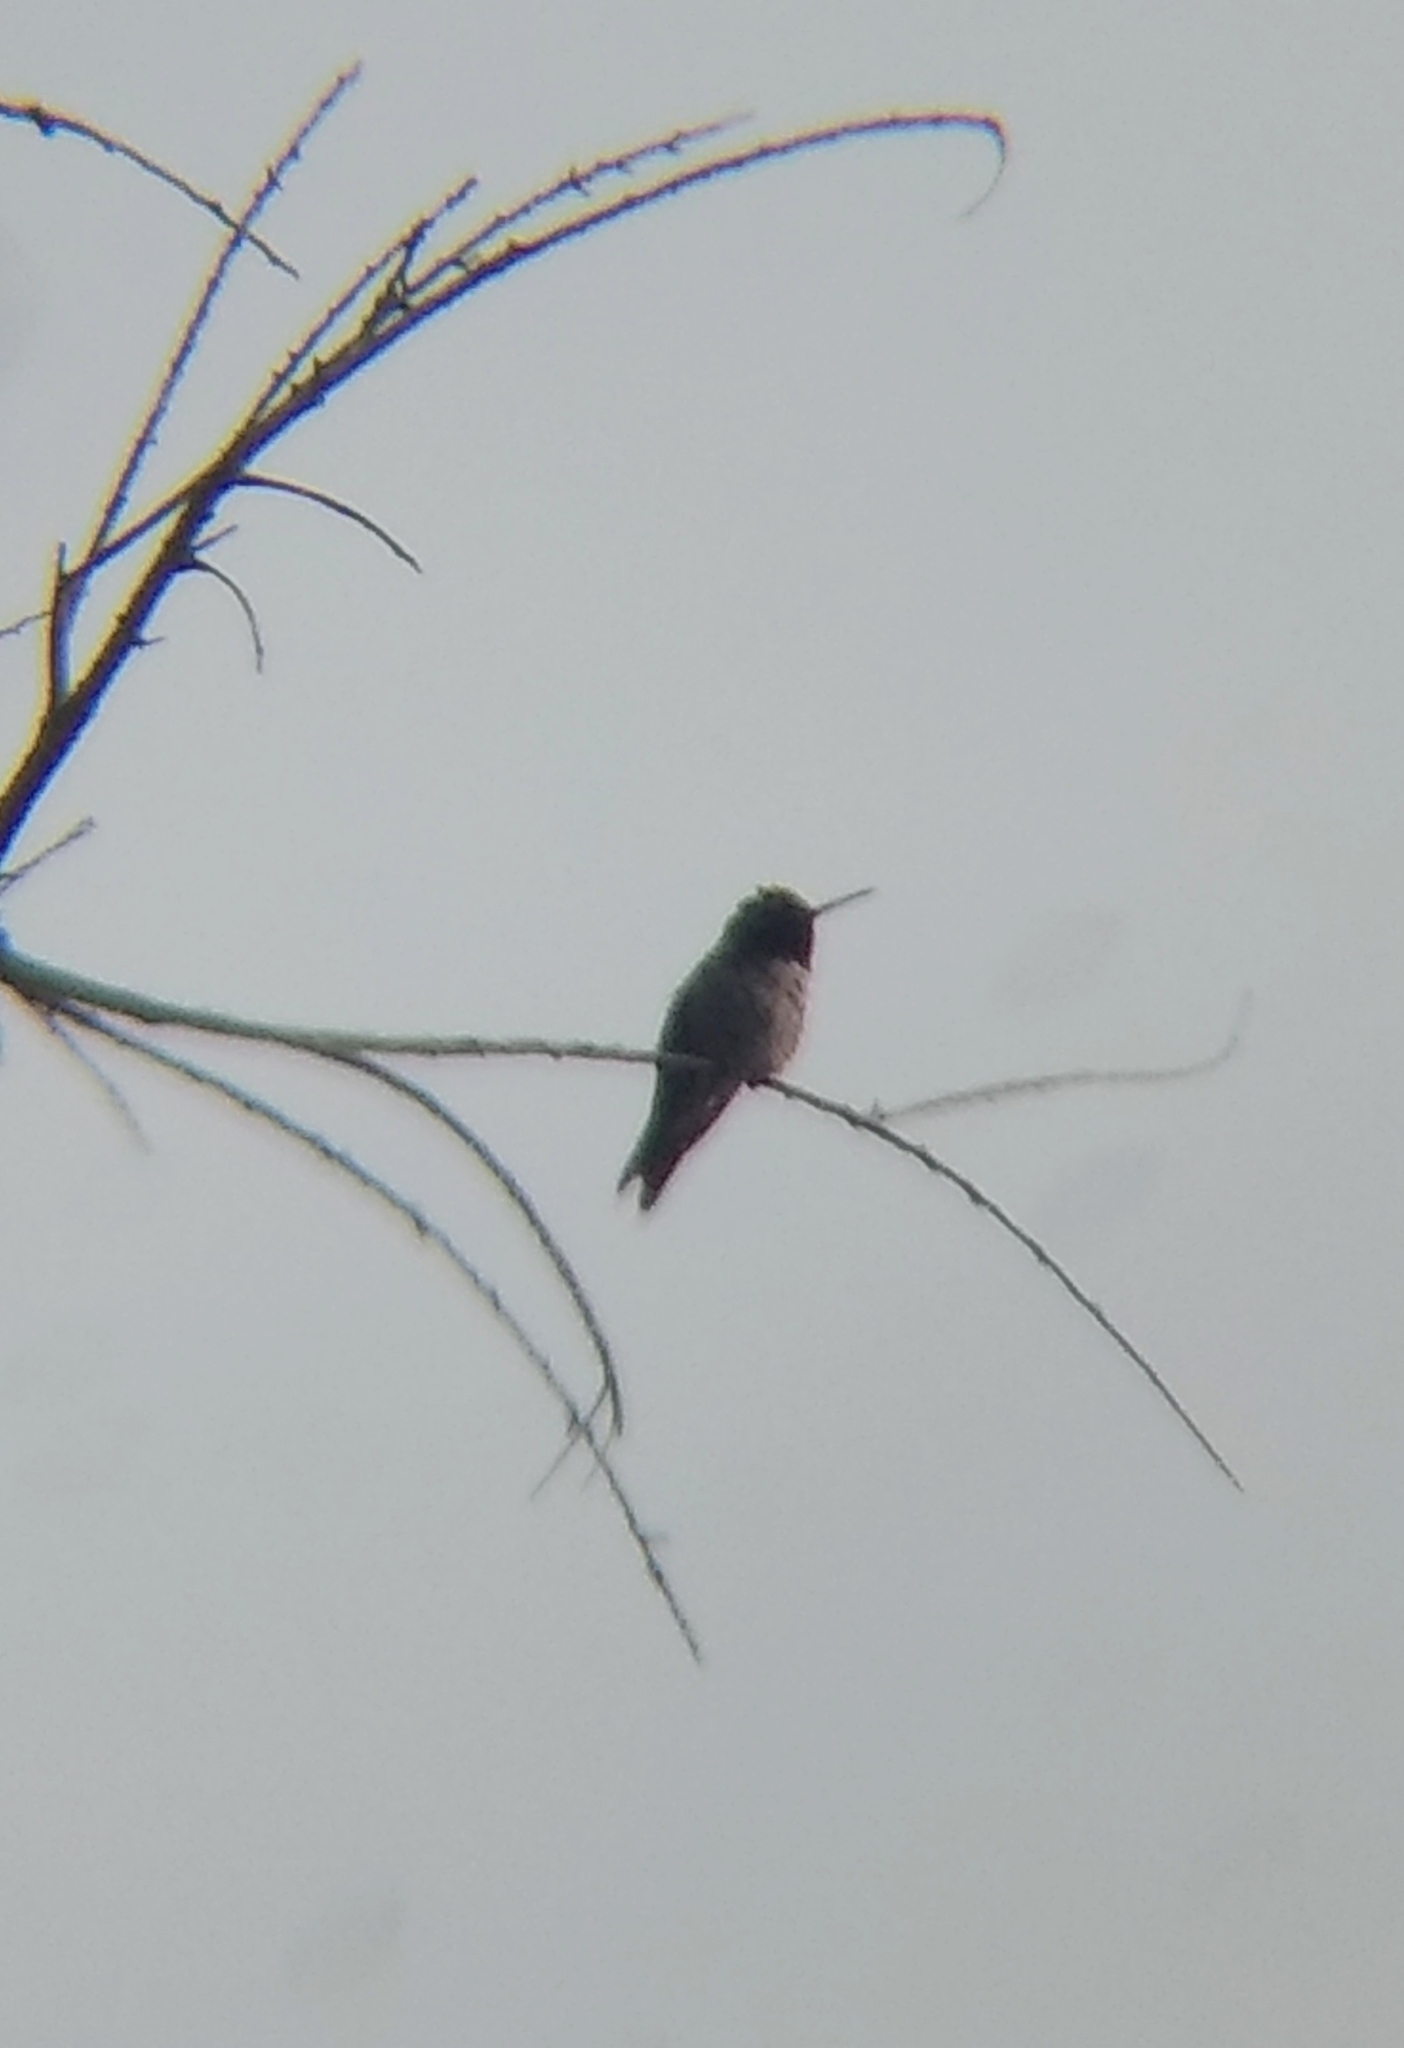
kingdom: Animalia
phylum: Chordata
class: Aves
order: Apodiformes
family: Trochilidae
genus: Calypte
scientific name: Calypte anna
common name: Anna's hummingbird
